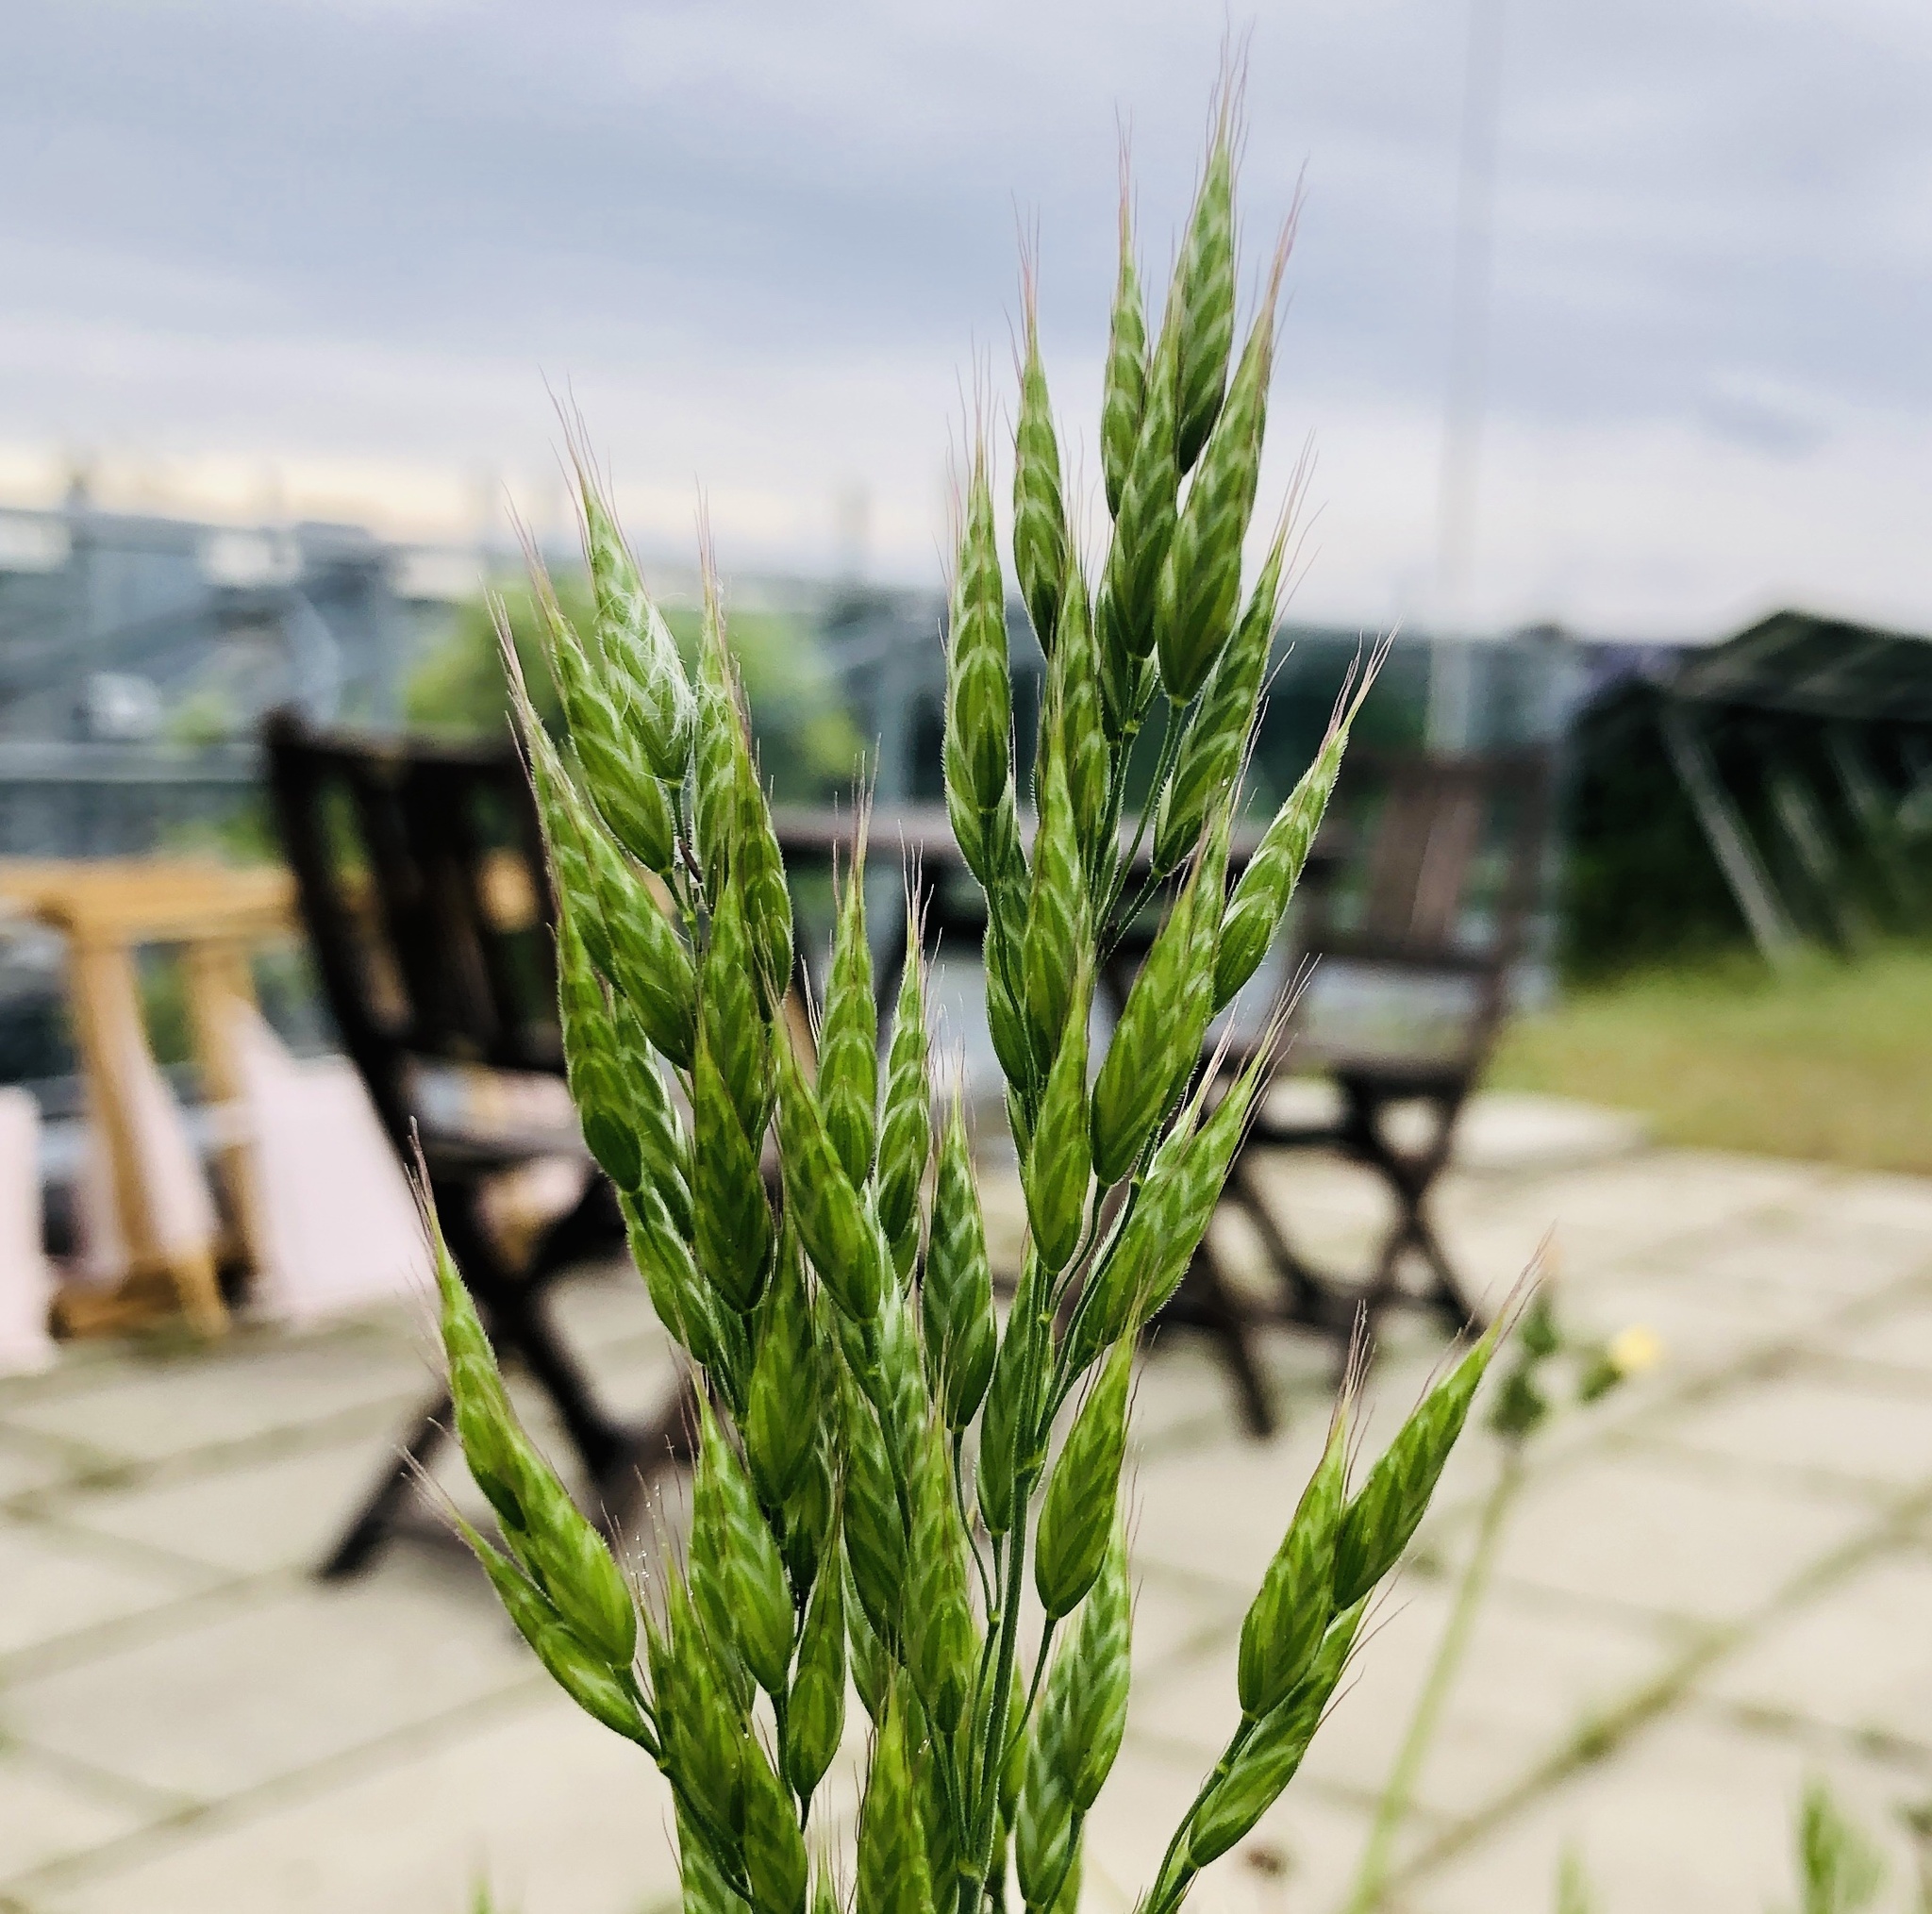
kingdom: Plantae
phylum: Tracheophyta
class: Liliopsida
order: Poales
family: Poaceae
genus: Bromus
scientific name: Bromus hordeaceus
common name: Soft brome
